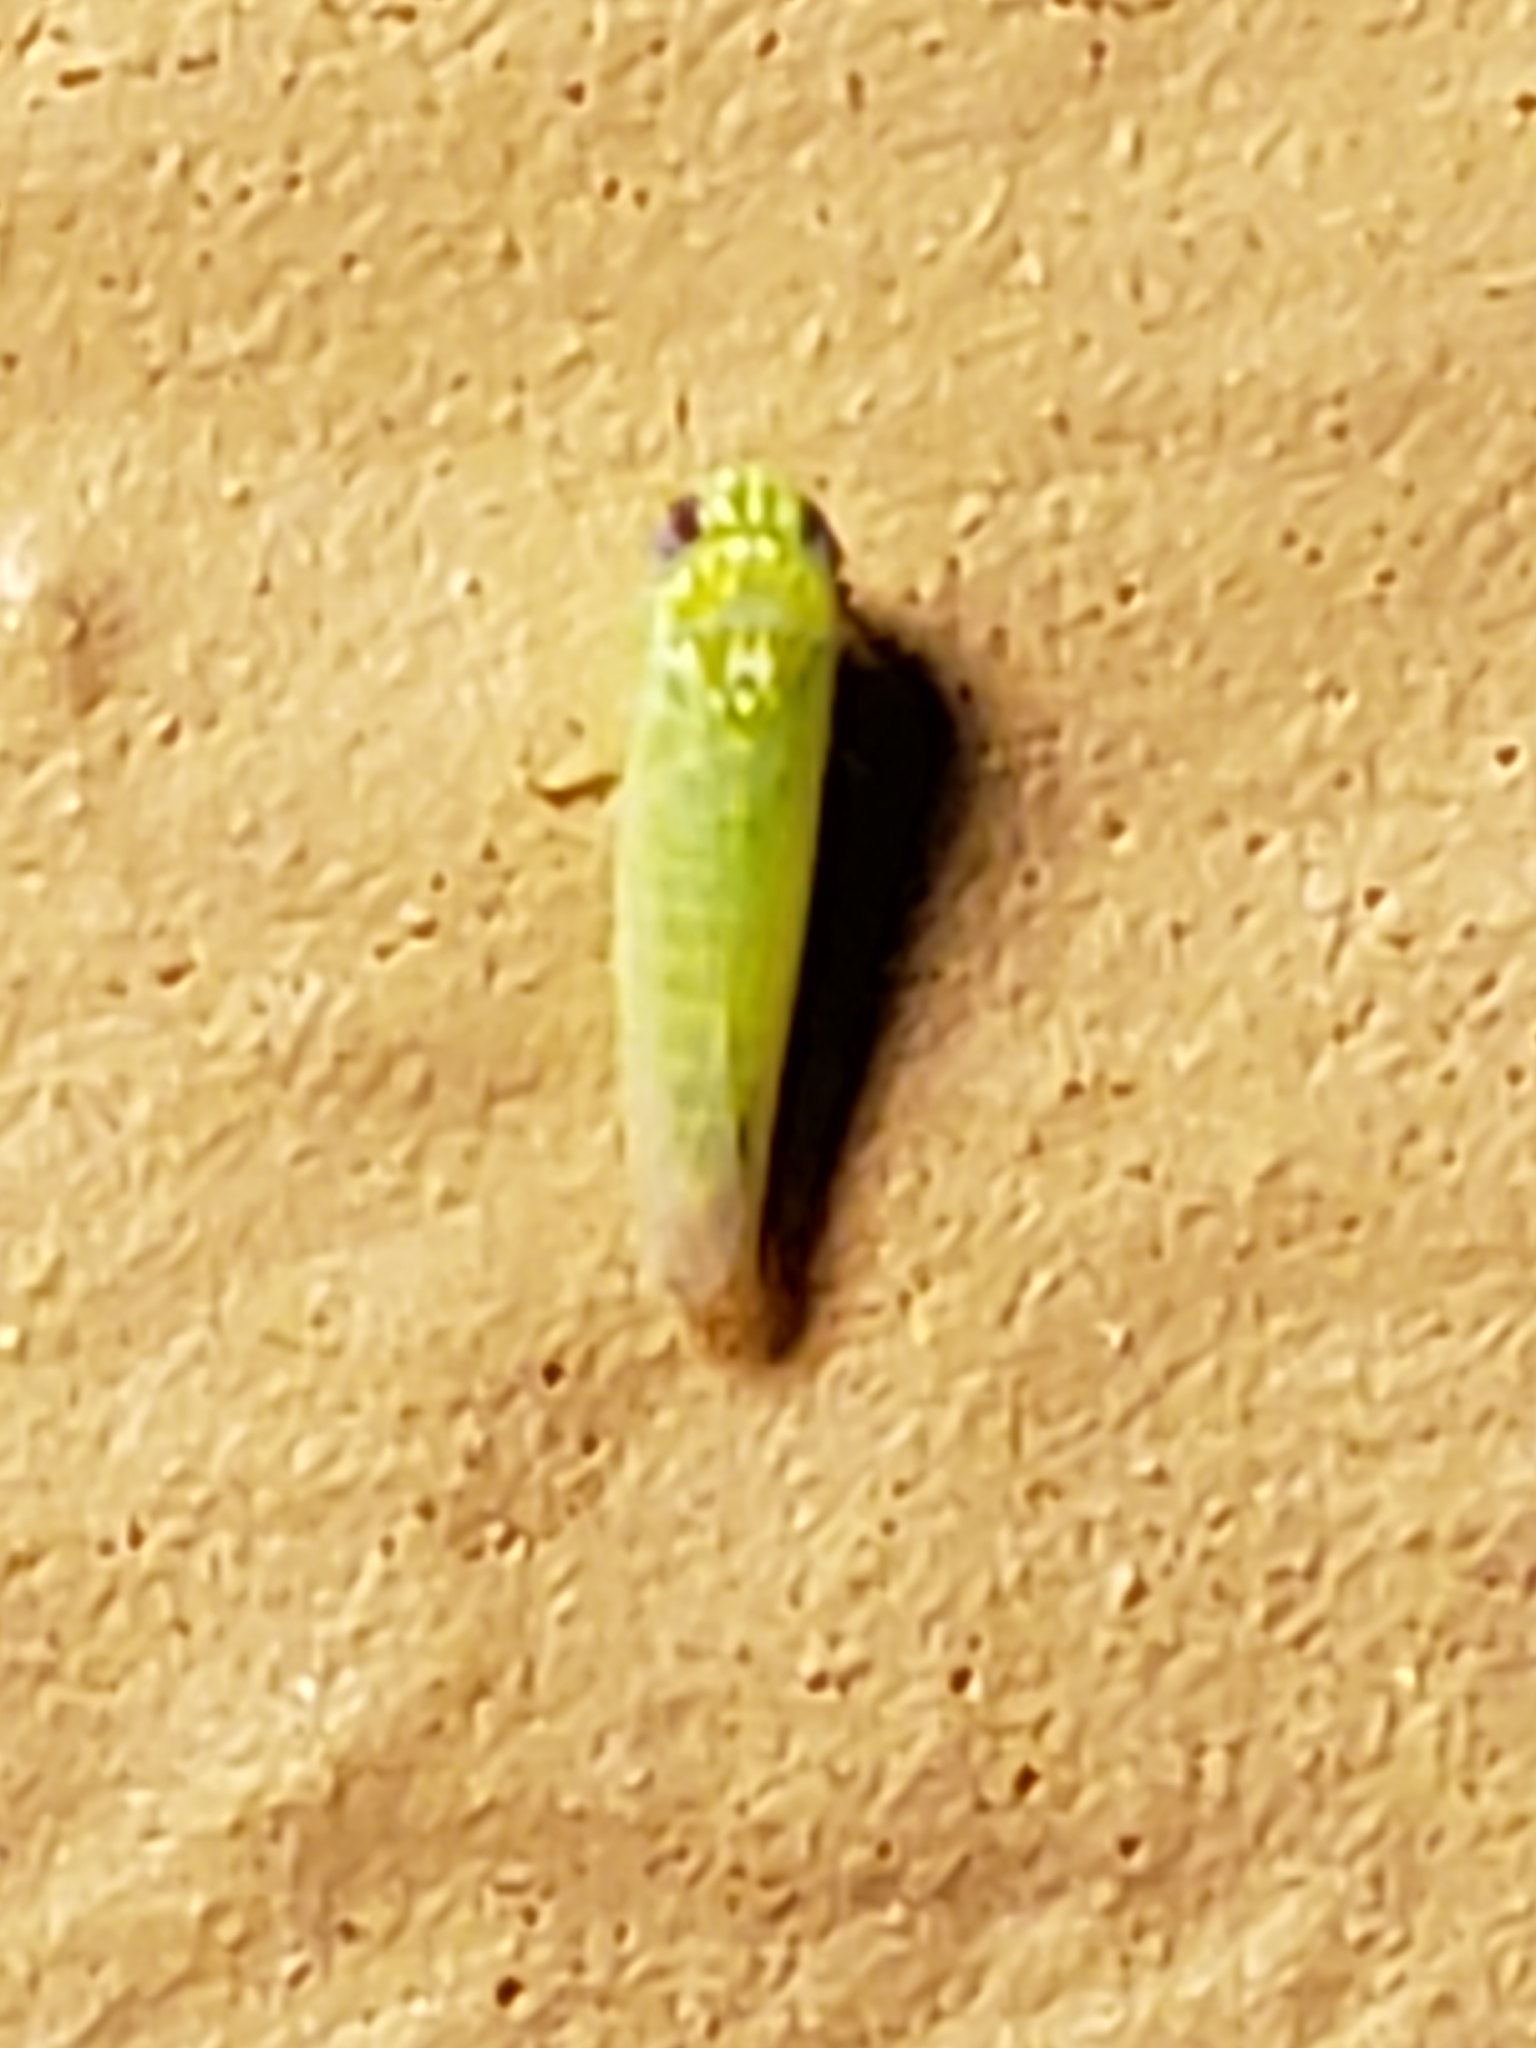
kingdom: Animalia
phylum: Arthropoda
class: Insecta
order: Hemiptera
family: Cicadellidae
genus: Empoasca
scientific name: Empoasca fabae
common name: Potato leafhopper
